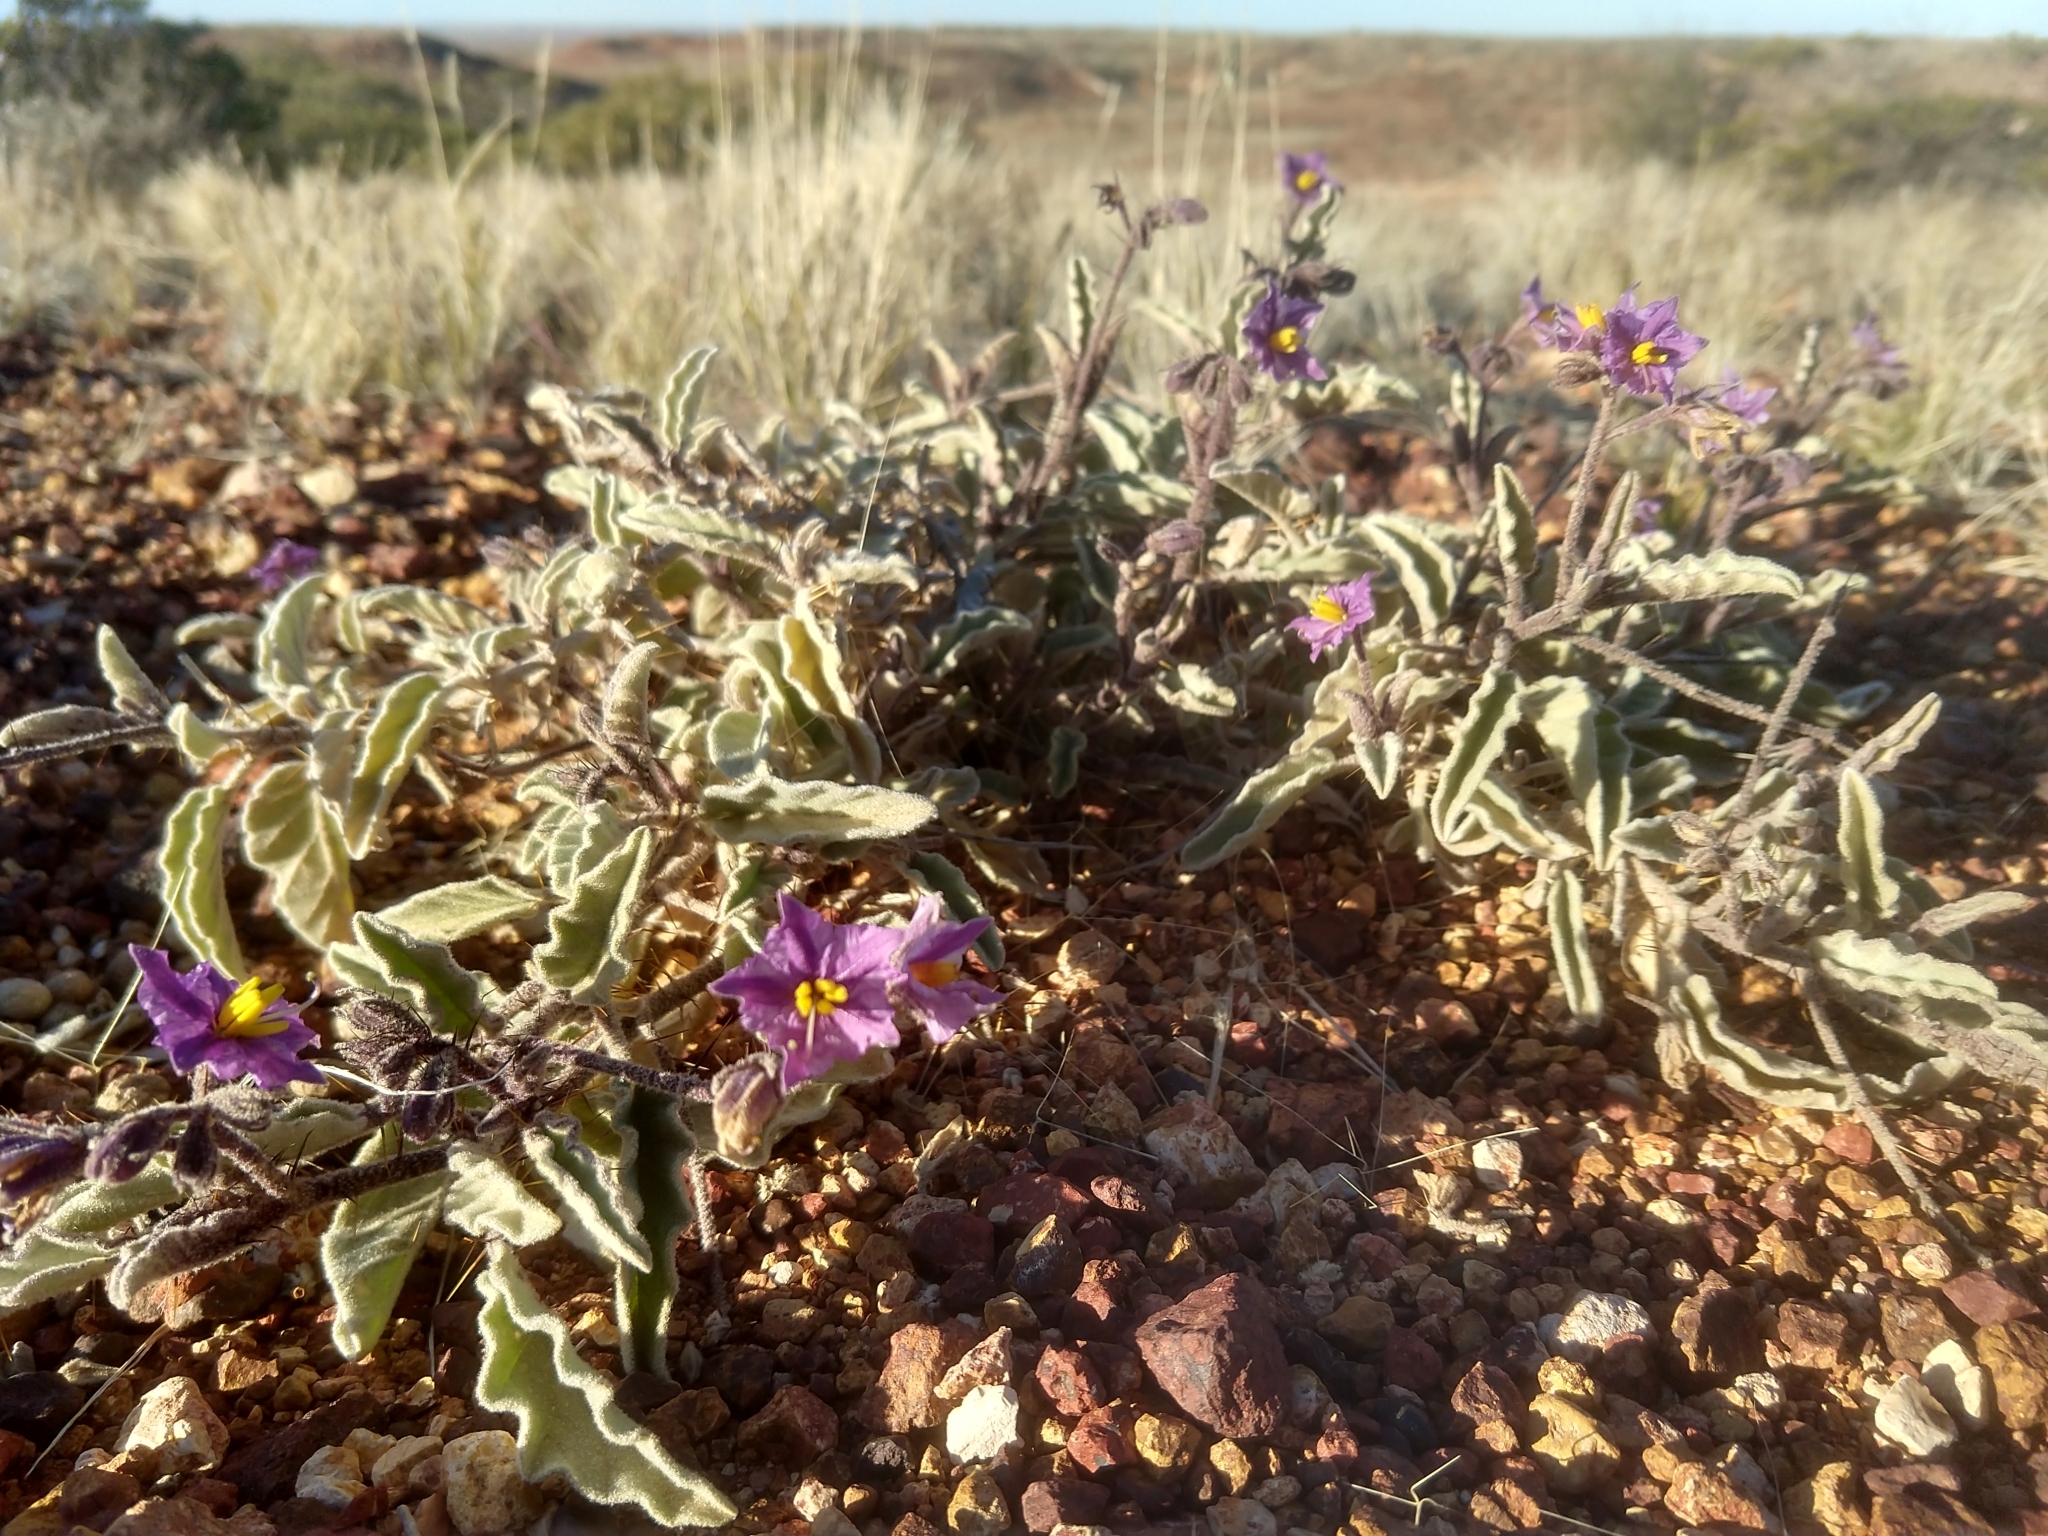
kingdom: Plantae
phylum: Tracheophyta
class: Magnoliopsida
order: Solanales
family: Solanaceae
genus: Solanum
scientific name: Solanum ellipticum
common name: Potato-bush
